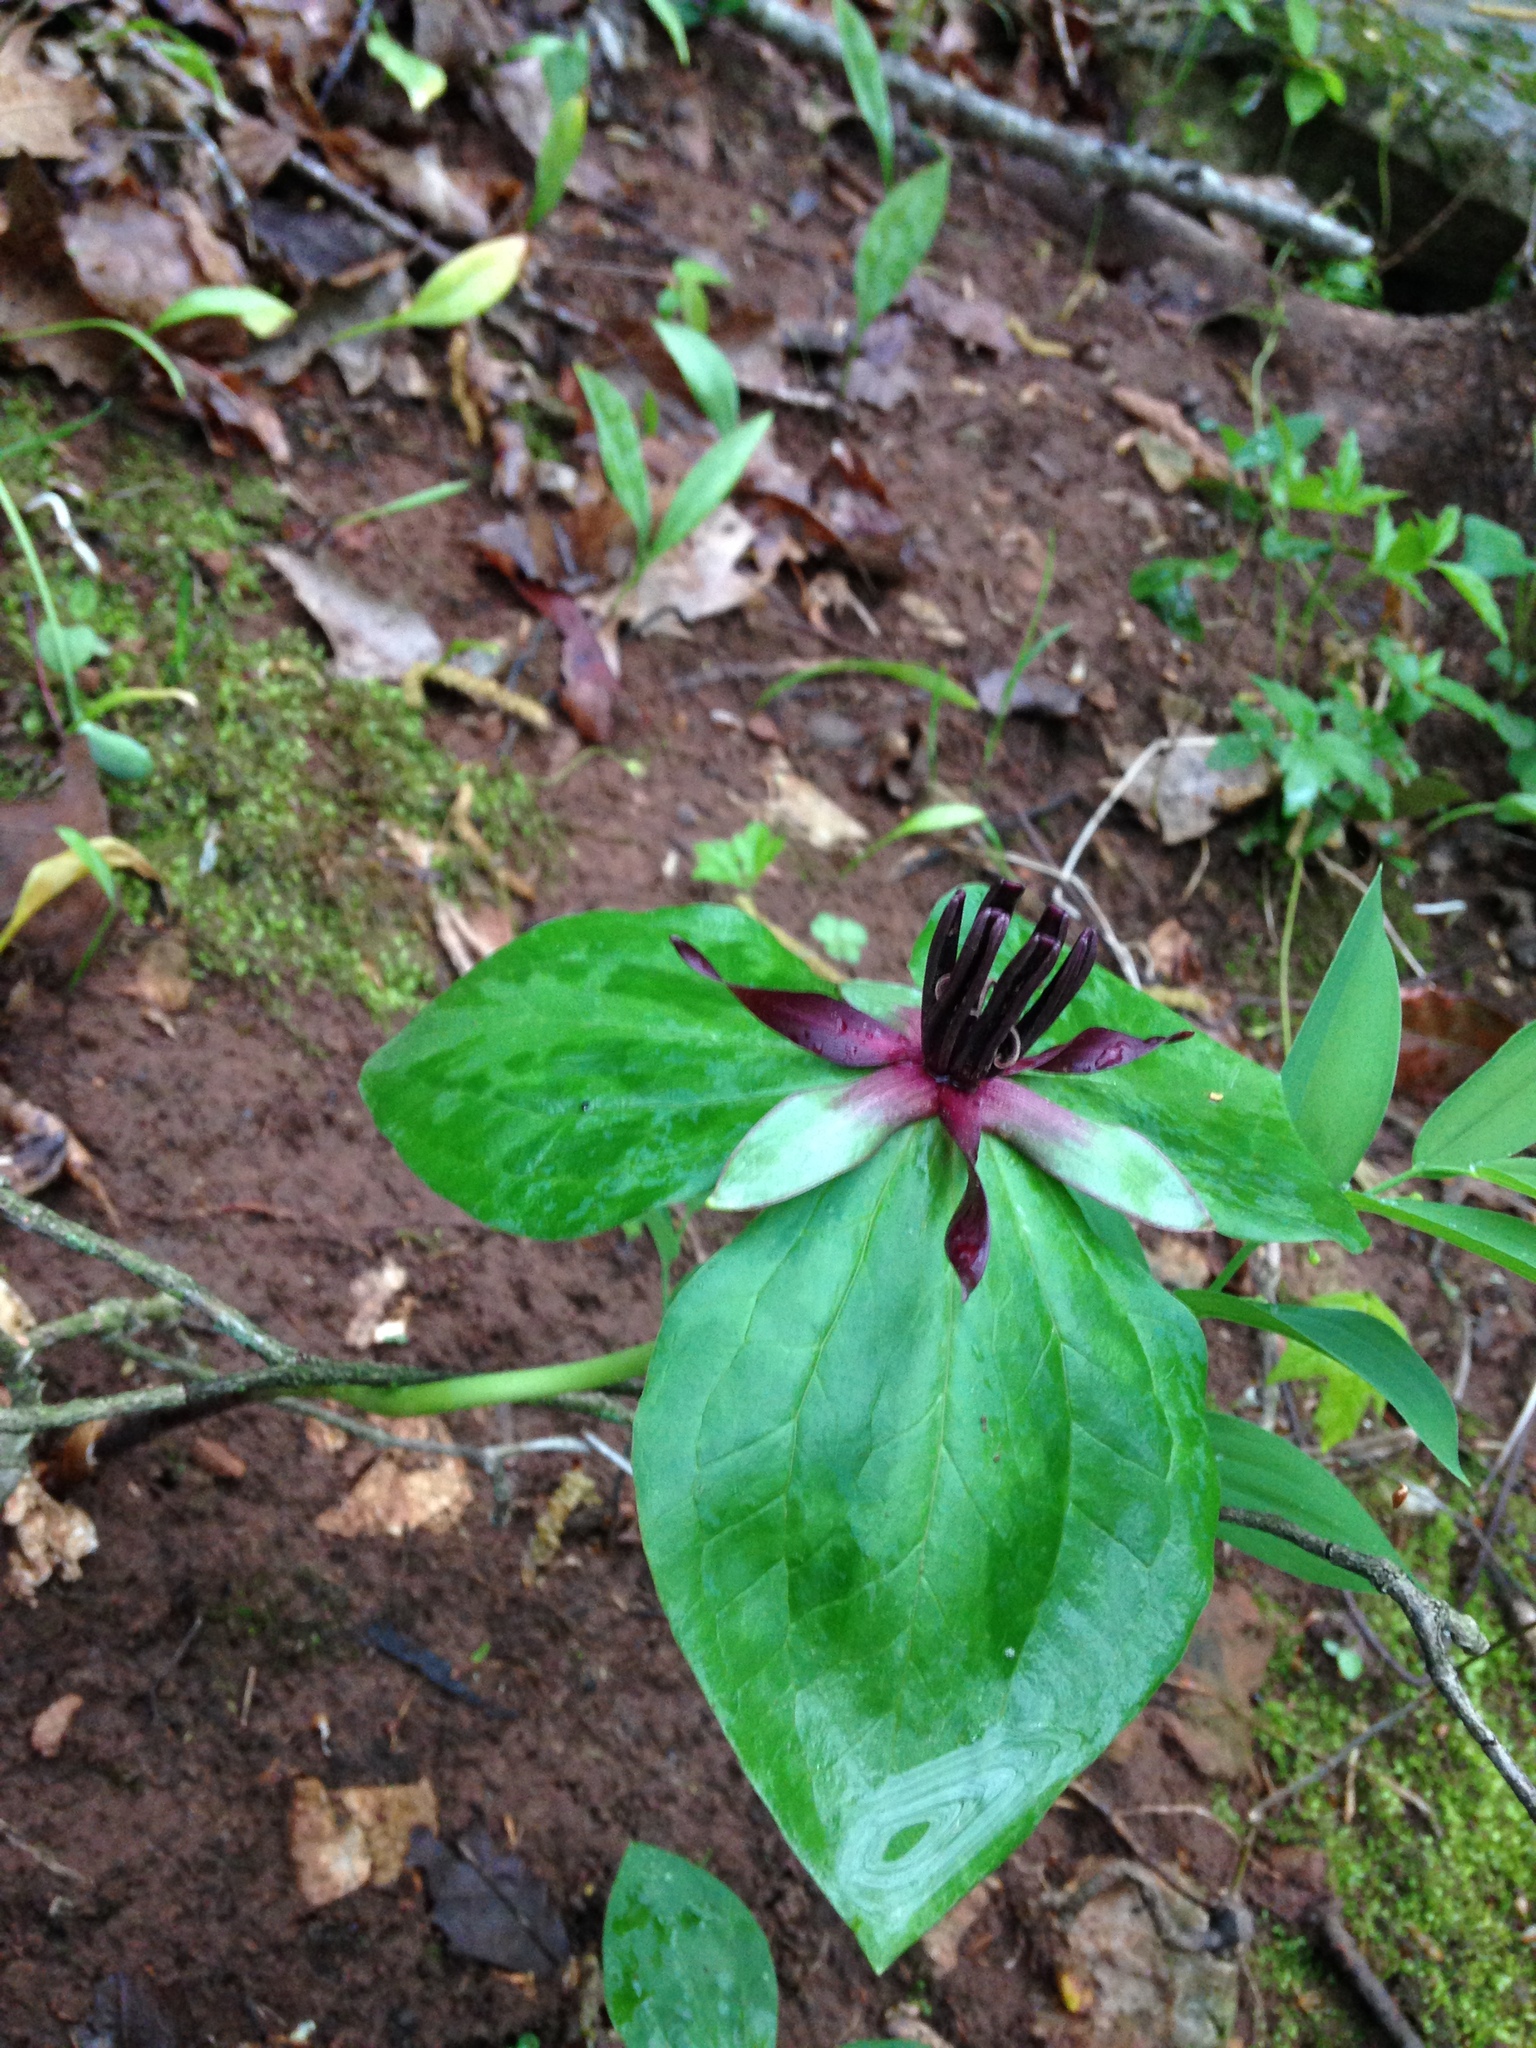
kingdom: Plantae
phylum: Tracheophyta
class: Liliopsida
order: Liliales
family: Melanthiaceae
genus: Trillium
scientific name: Trillium stamineum
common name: Blue ridge wakerobin
